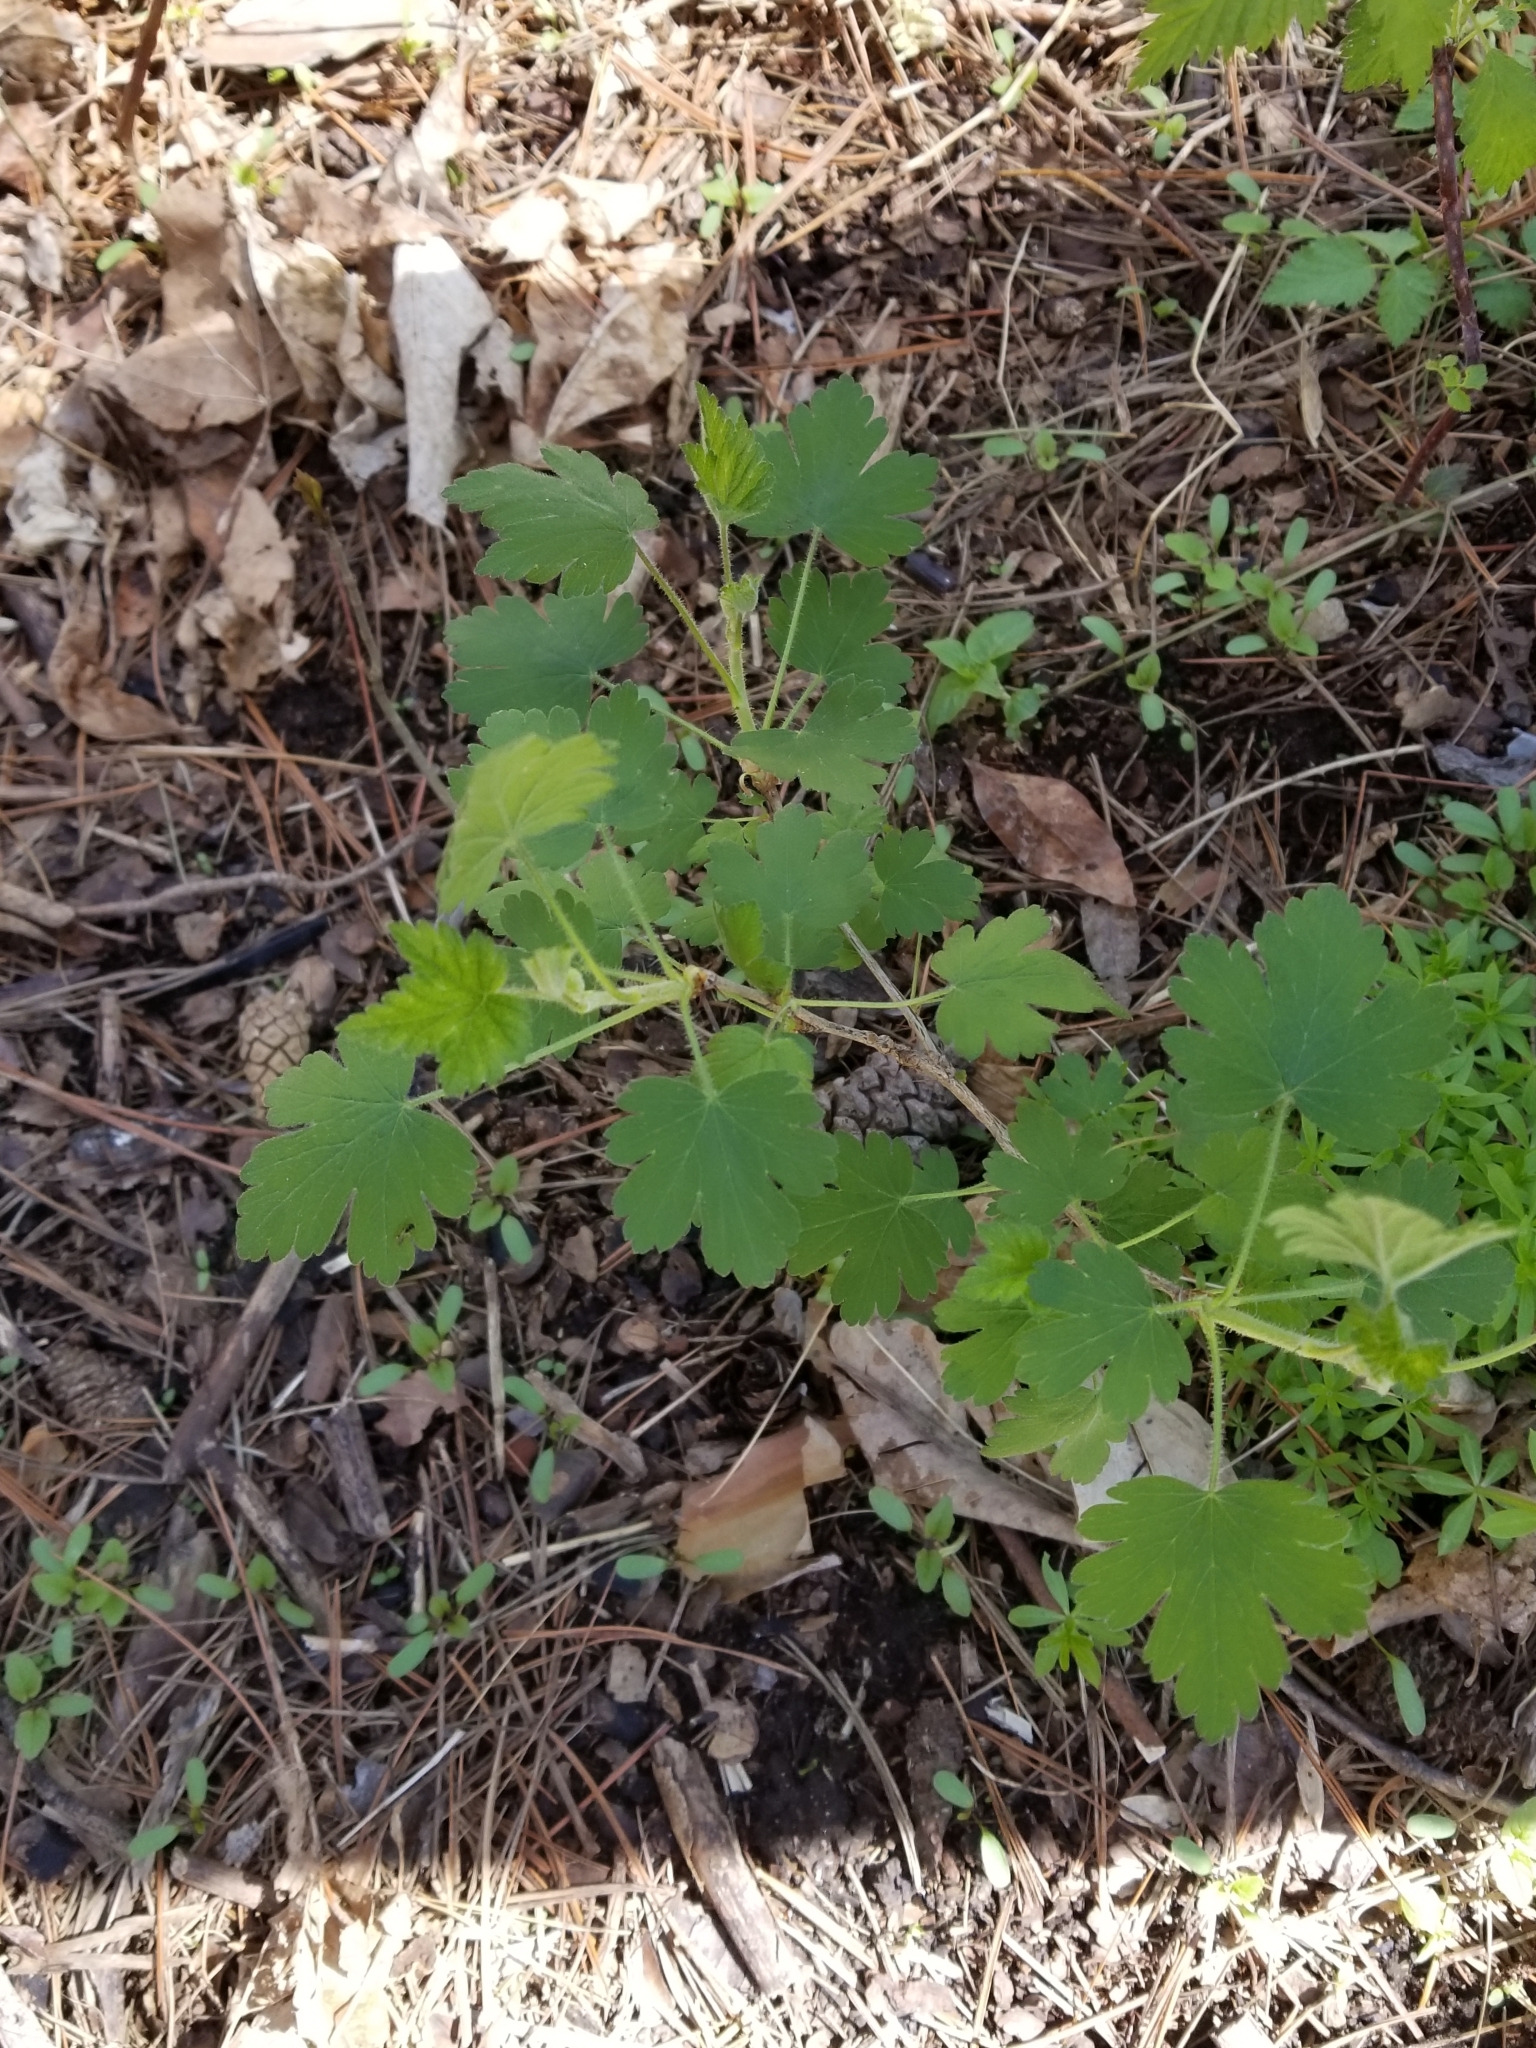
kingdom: Plantae
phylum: Tracheophyta
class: Magnoliopsida
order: Saxifragales
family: Grossulariaceae
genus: Ribes
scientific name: Ribes cynosbati
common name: American gooseberry
